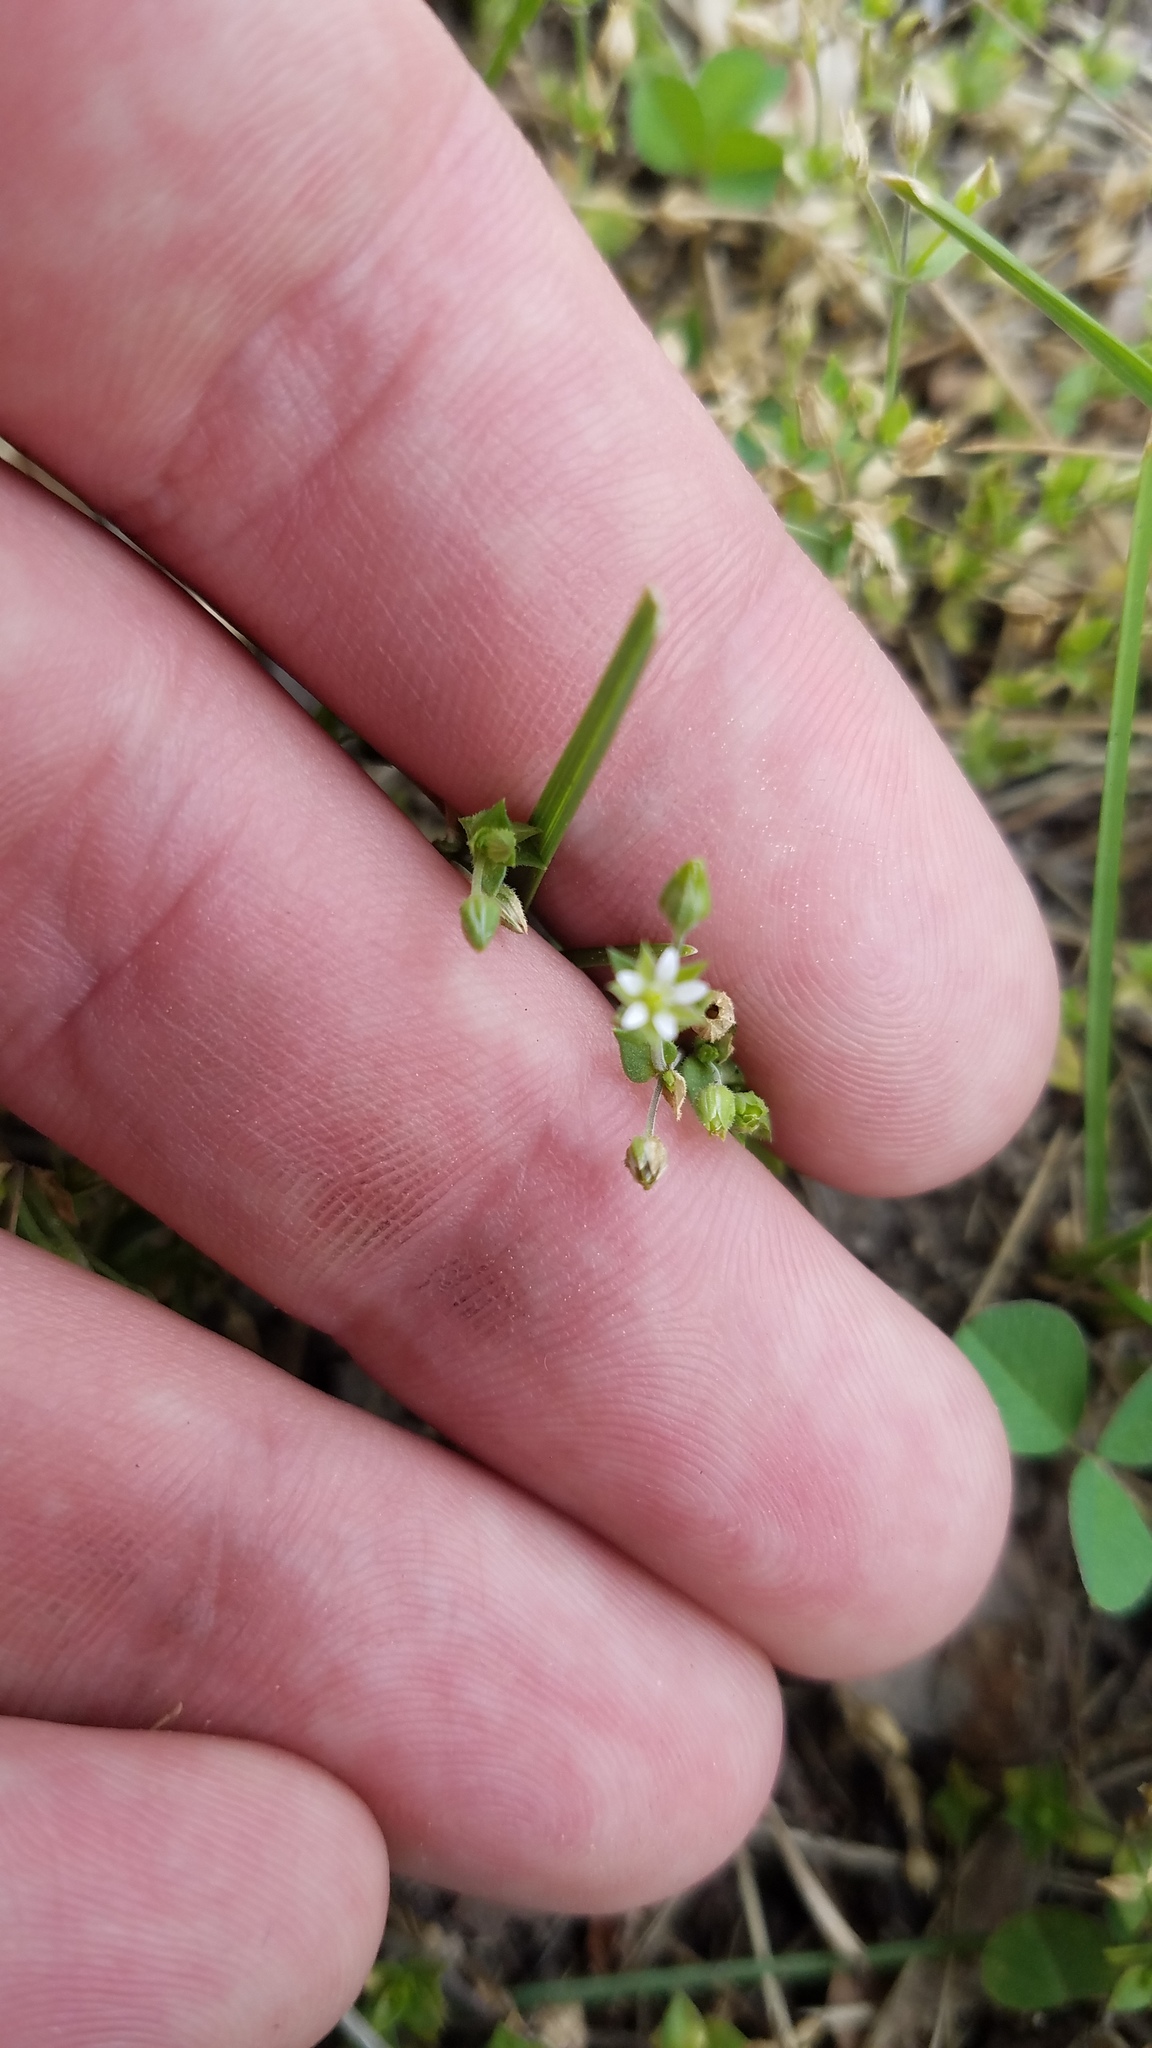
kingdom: Plantae
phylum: Tracheophyta
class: Magnoliopsida
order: Caryophyllales
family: Caryophyllaceae
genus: Arenaria
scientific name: Arenaria serpyllifolia
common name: Thyme-leaved sandwort
